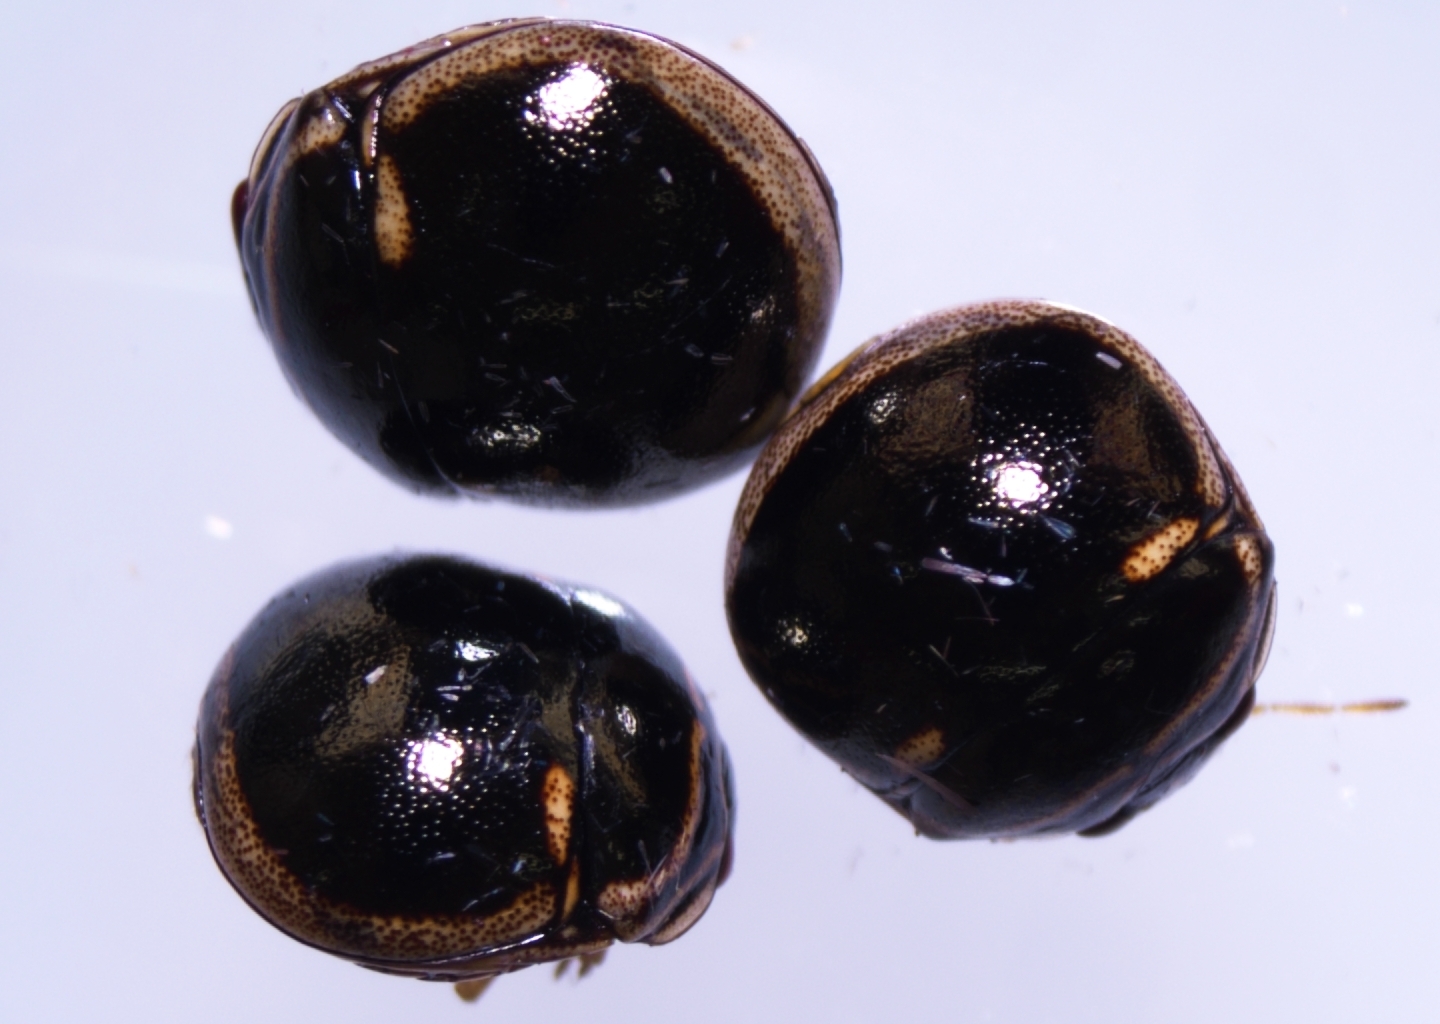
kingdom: Animalia
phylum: Arthropoda
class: Insecta
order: Hemiptera
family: Plataspidae
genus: Coptosoma
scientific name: Coptosoma
